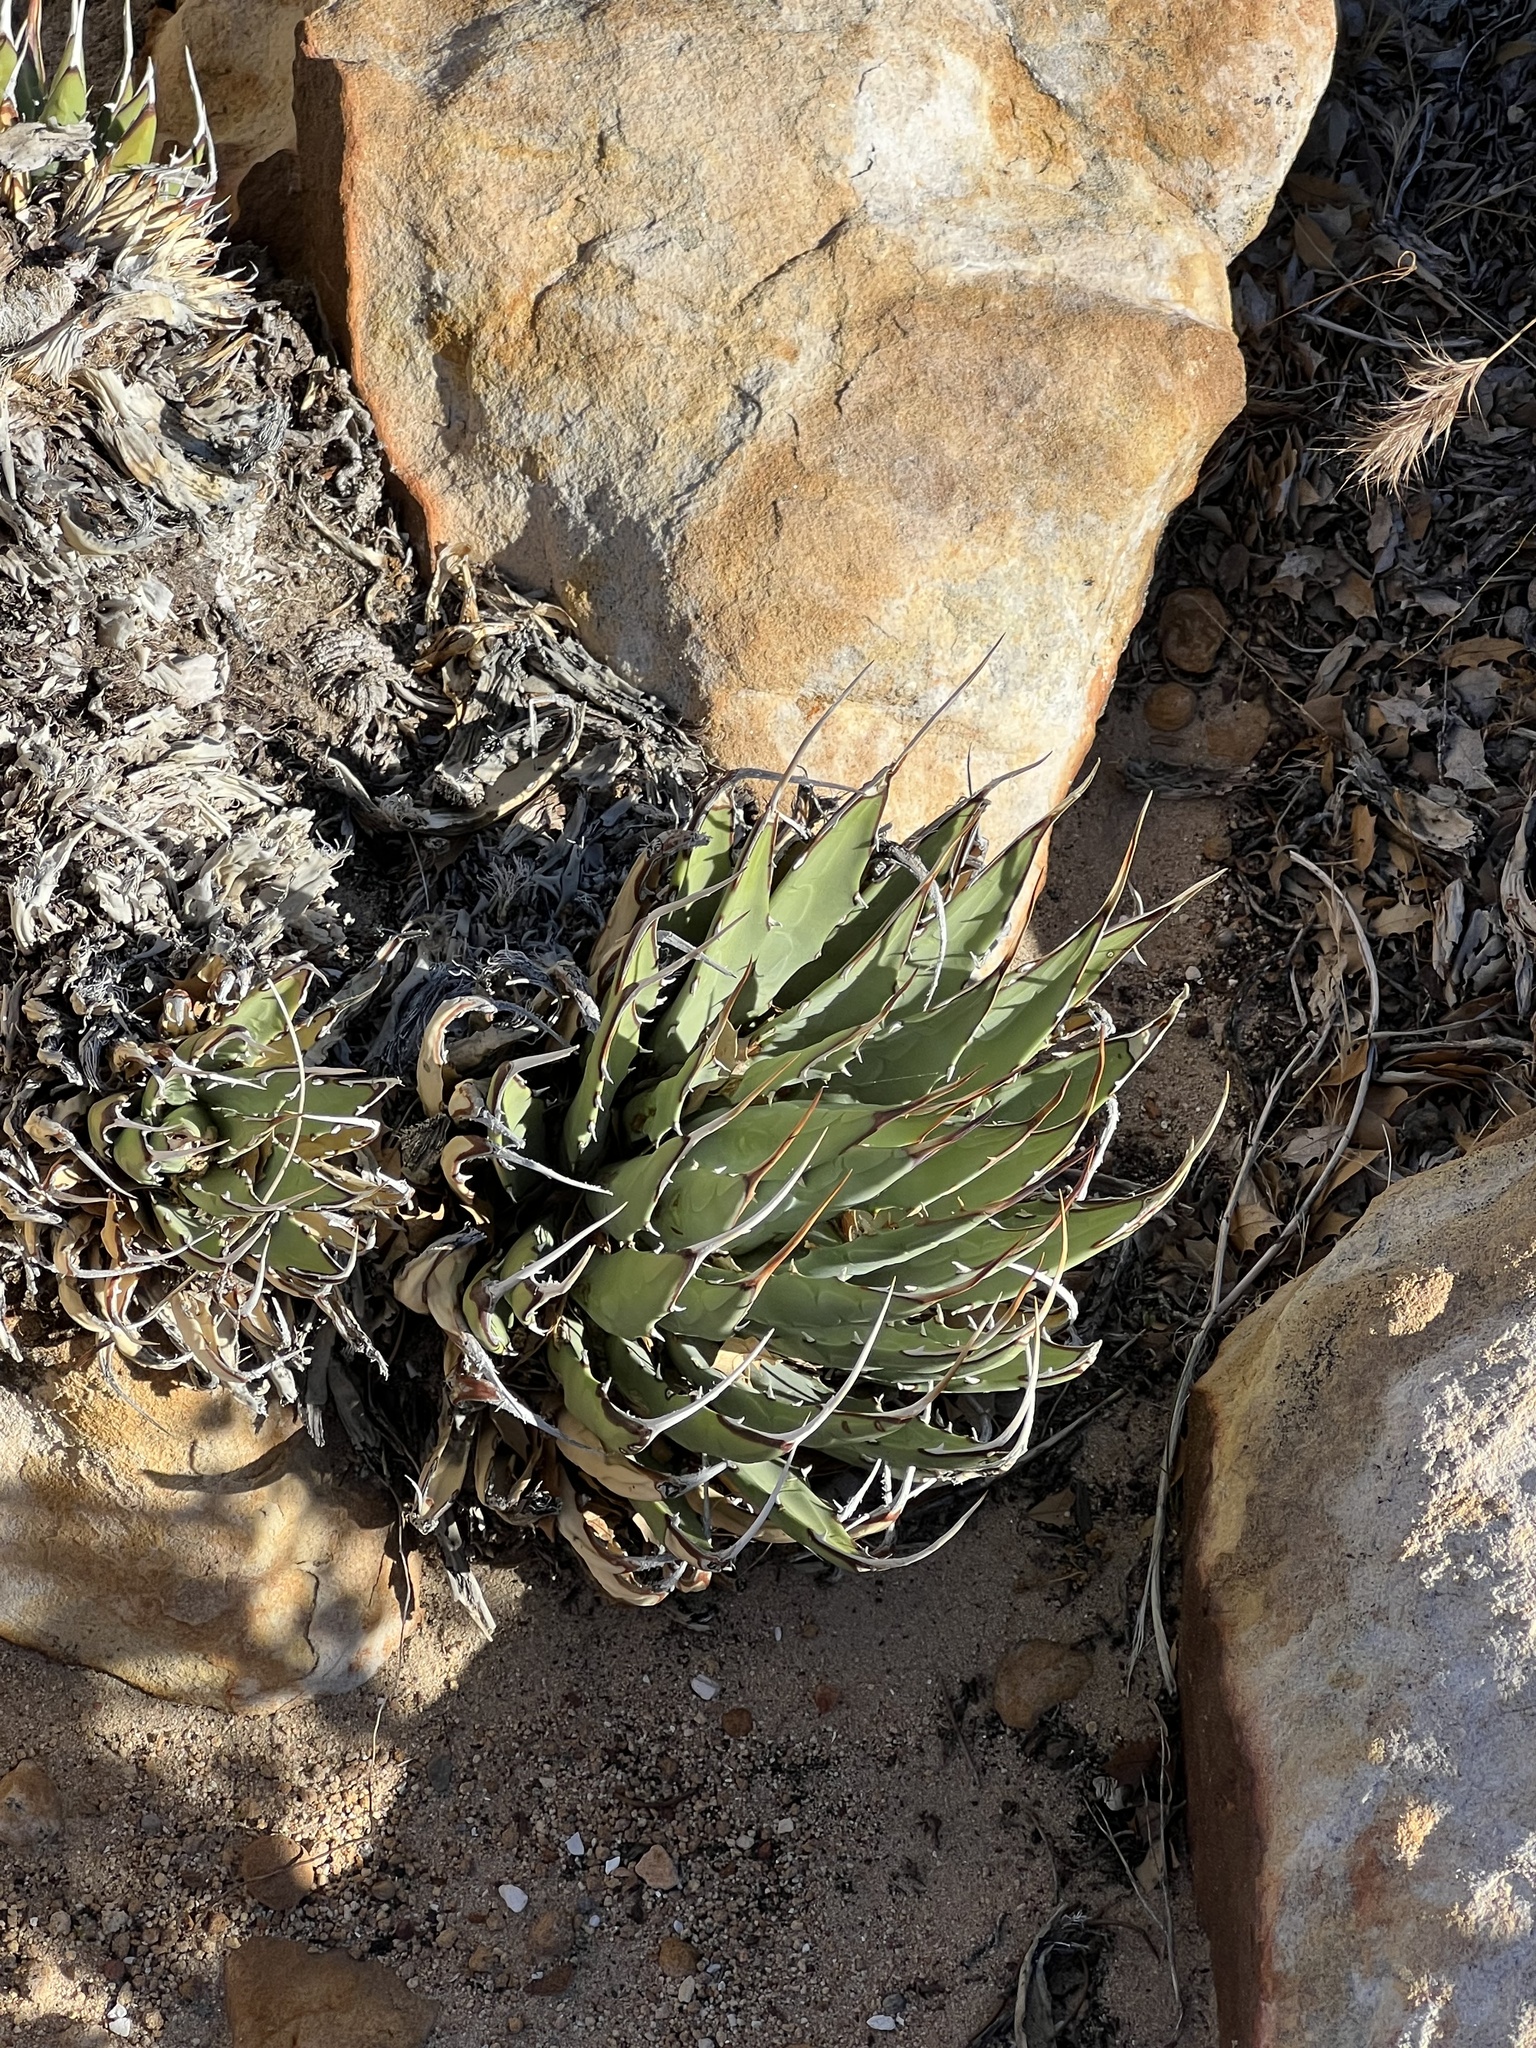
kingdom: Plantae
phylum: Tracheophyta
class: Liliopsida
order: Asparagales
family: Asparagaceae
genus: Agave
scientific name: Agave utahensis
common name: Utah agave
